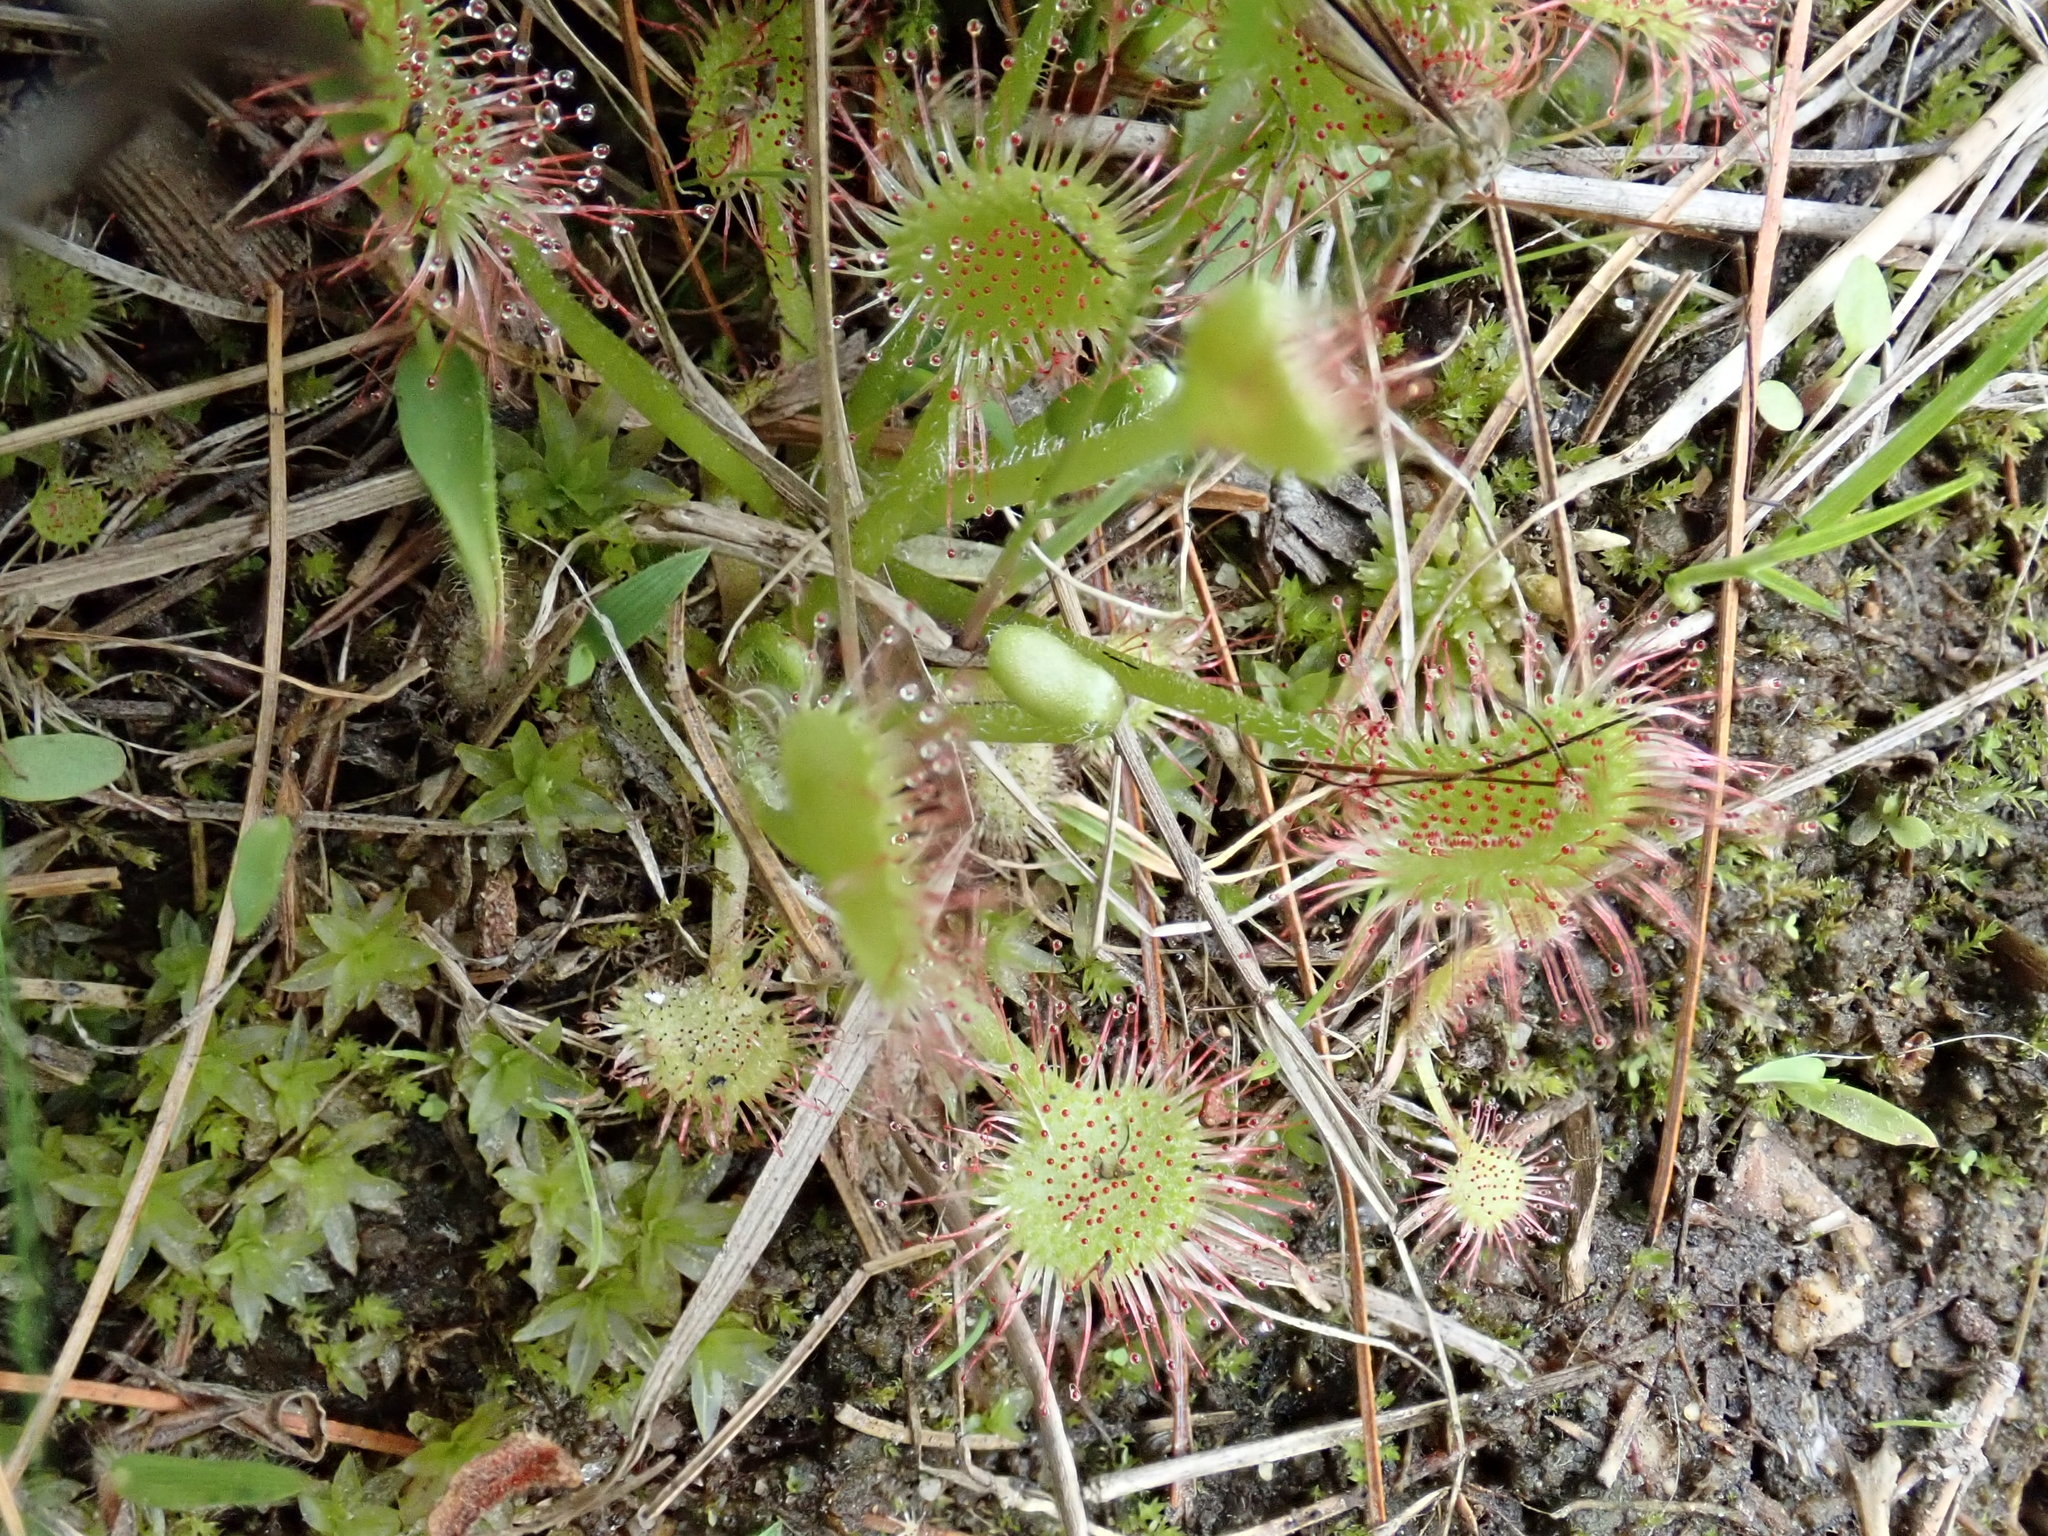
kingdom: Plantae
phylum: Tracheophyta
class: Magnoliopsida
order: Caryophyllales
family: Droseraceae
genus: Drosera
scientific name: Drosera rotundifolia
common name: Round-leaved sundew
